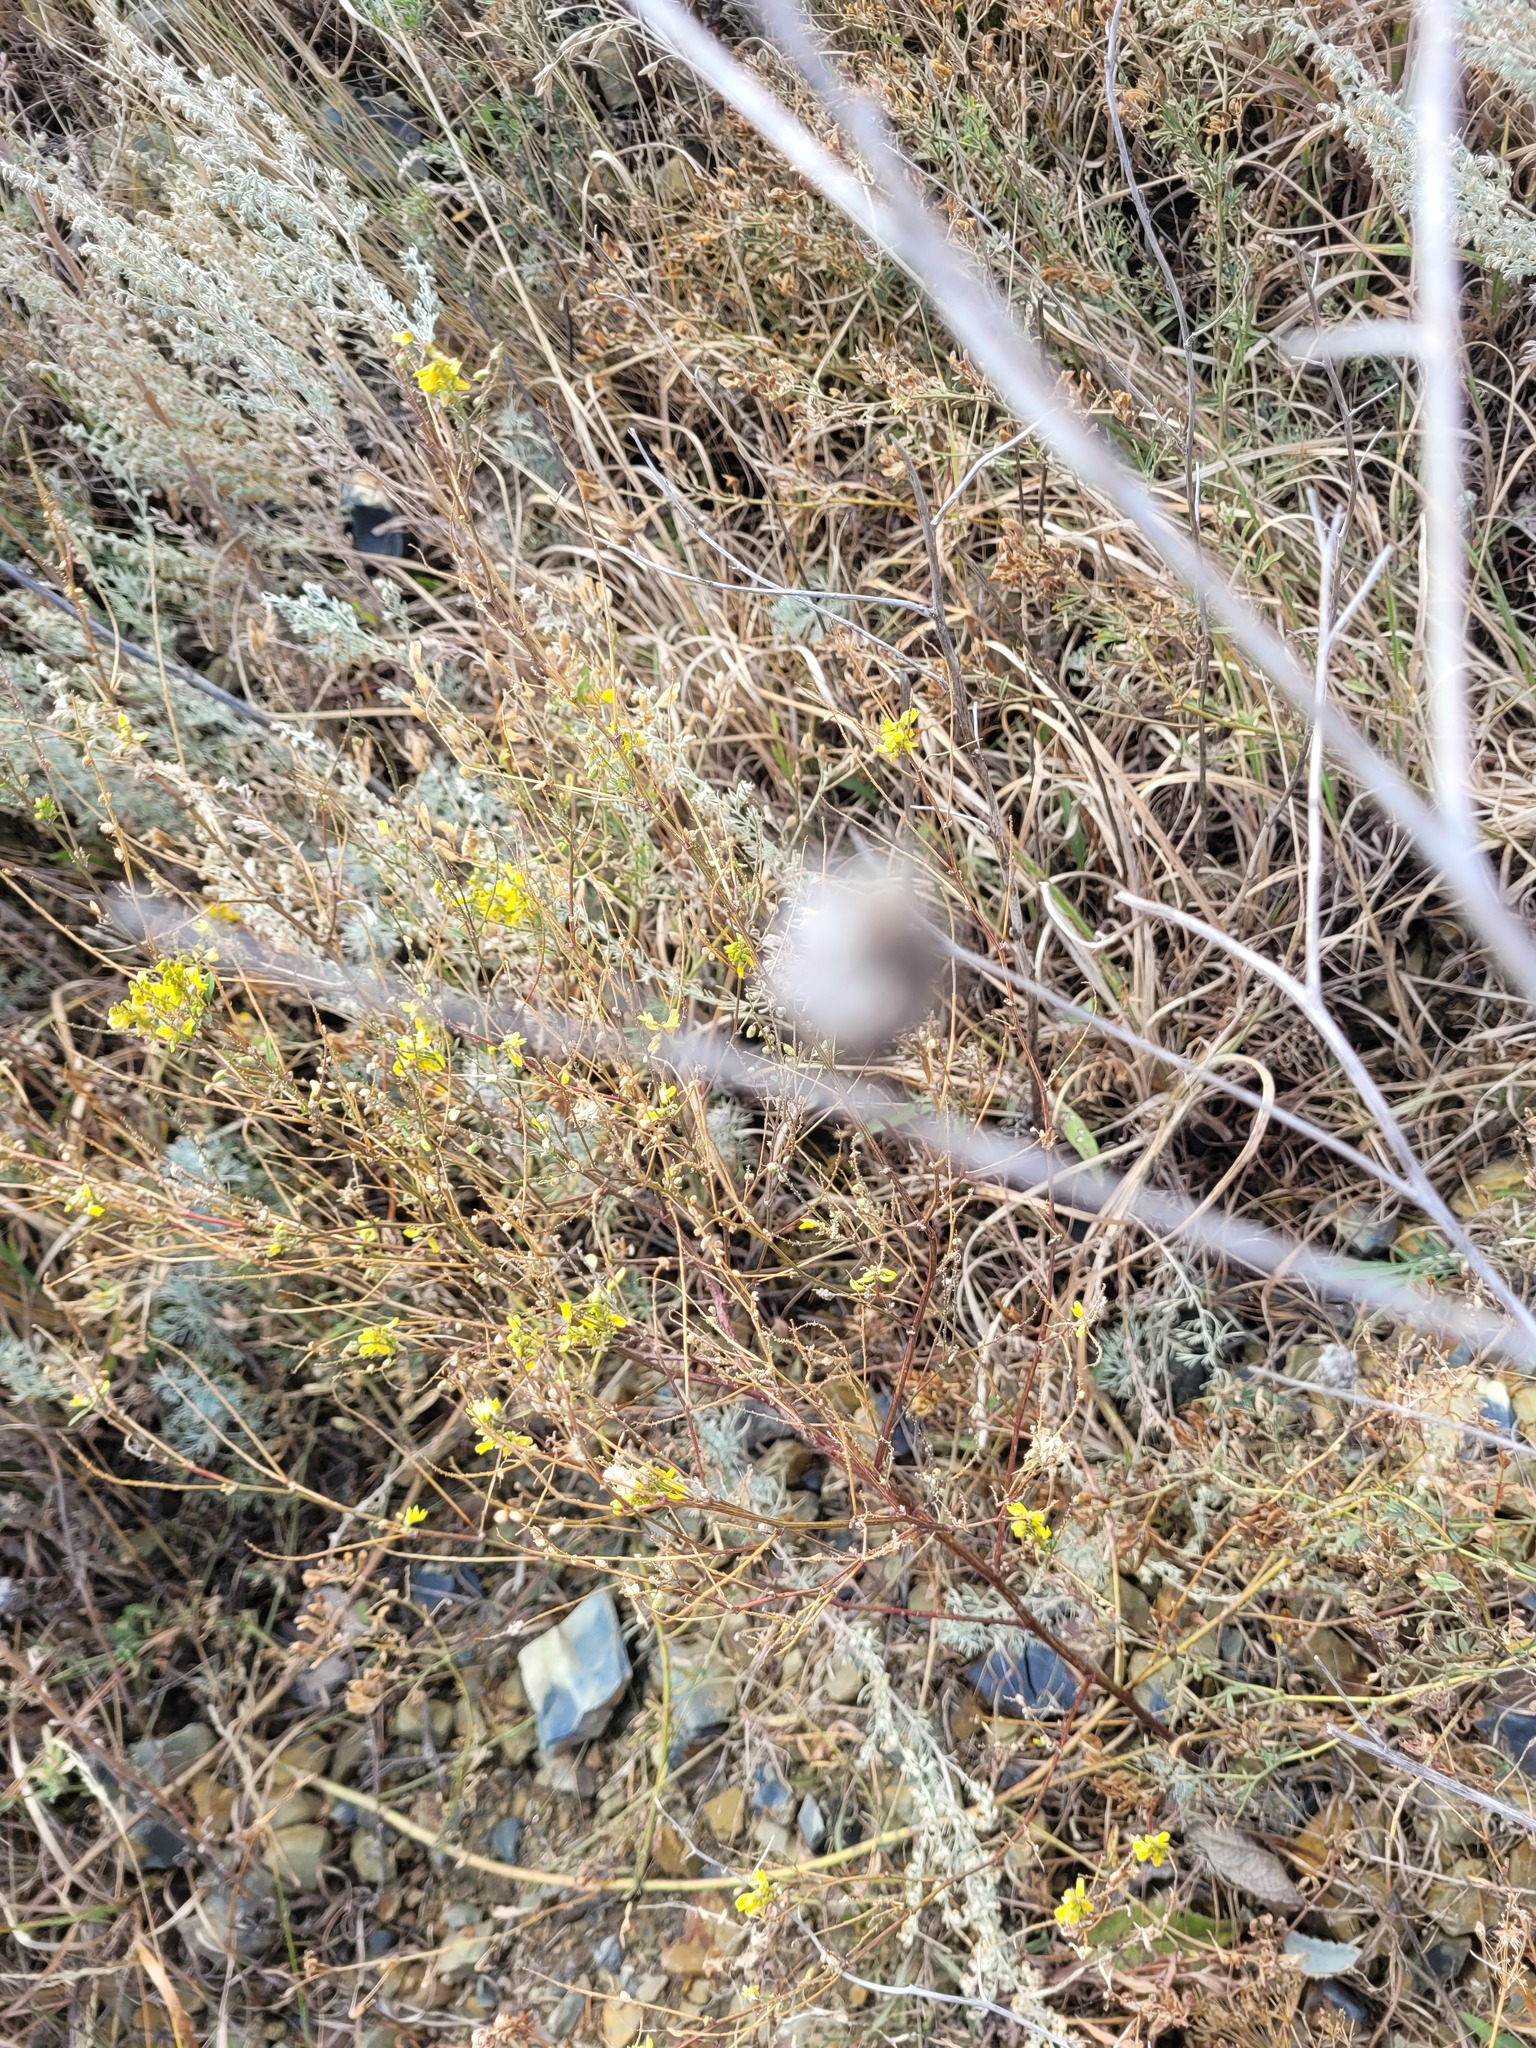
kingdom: Plantae
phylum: Tracheophyta
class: Magnoliopsida
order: Fabales
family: Fabaceae
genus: Melilotus
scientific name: Melilotus officinalis
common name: Sweetclover
